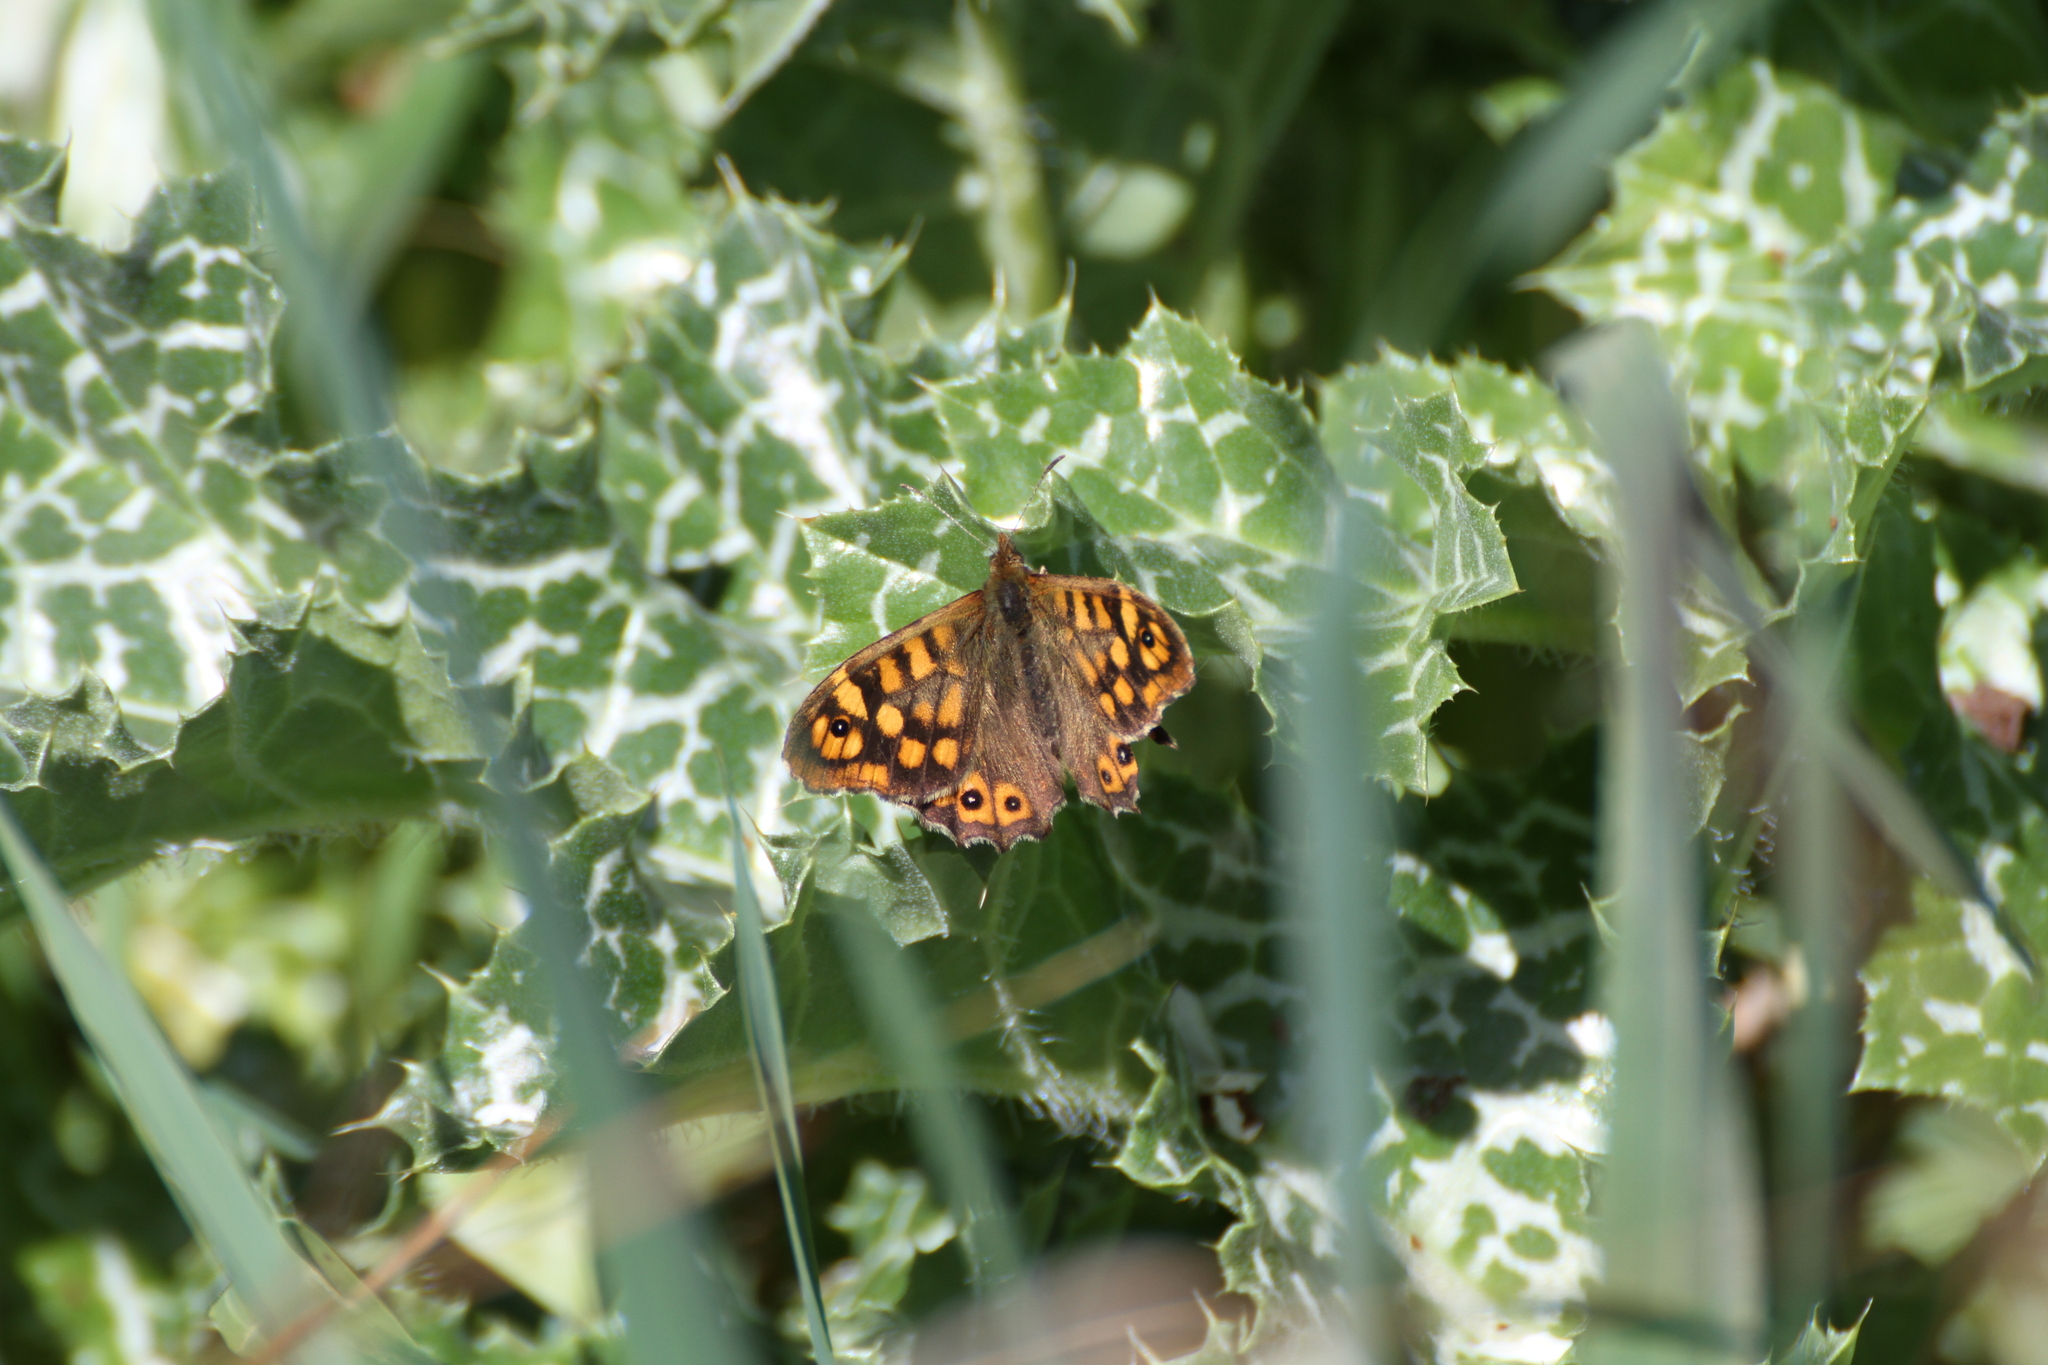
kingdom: Animalia
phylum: Arthropoda
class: Insecta
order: Lepidoptera
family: Nymphalidae
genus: Pararge
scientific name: Pararge aegeria
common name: Speckled wood
